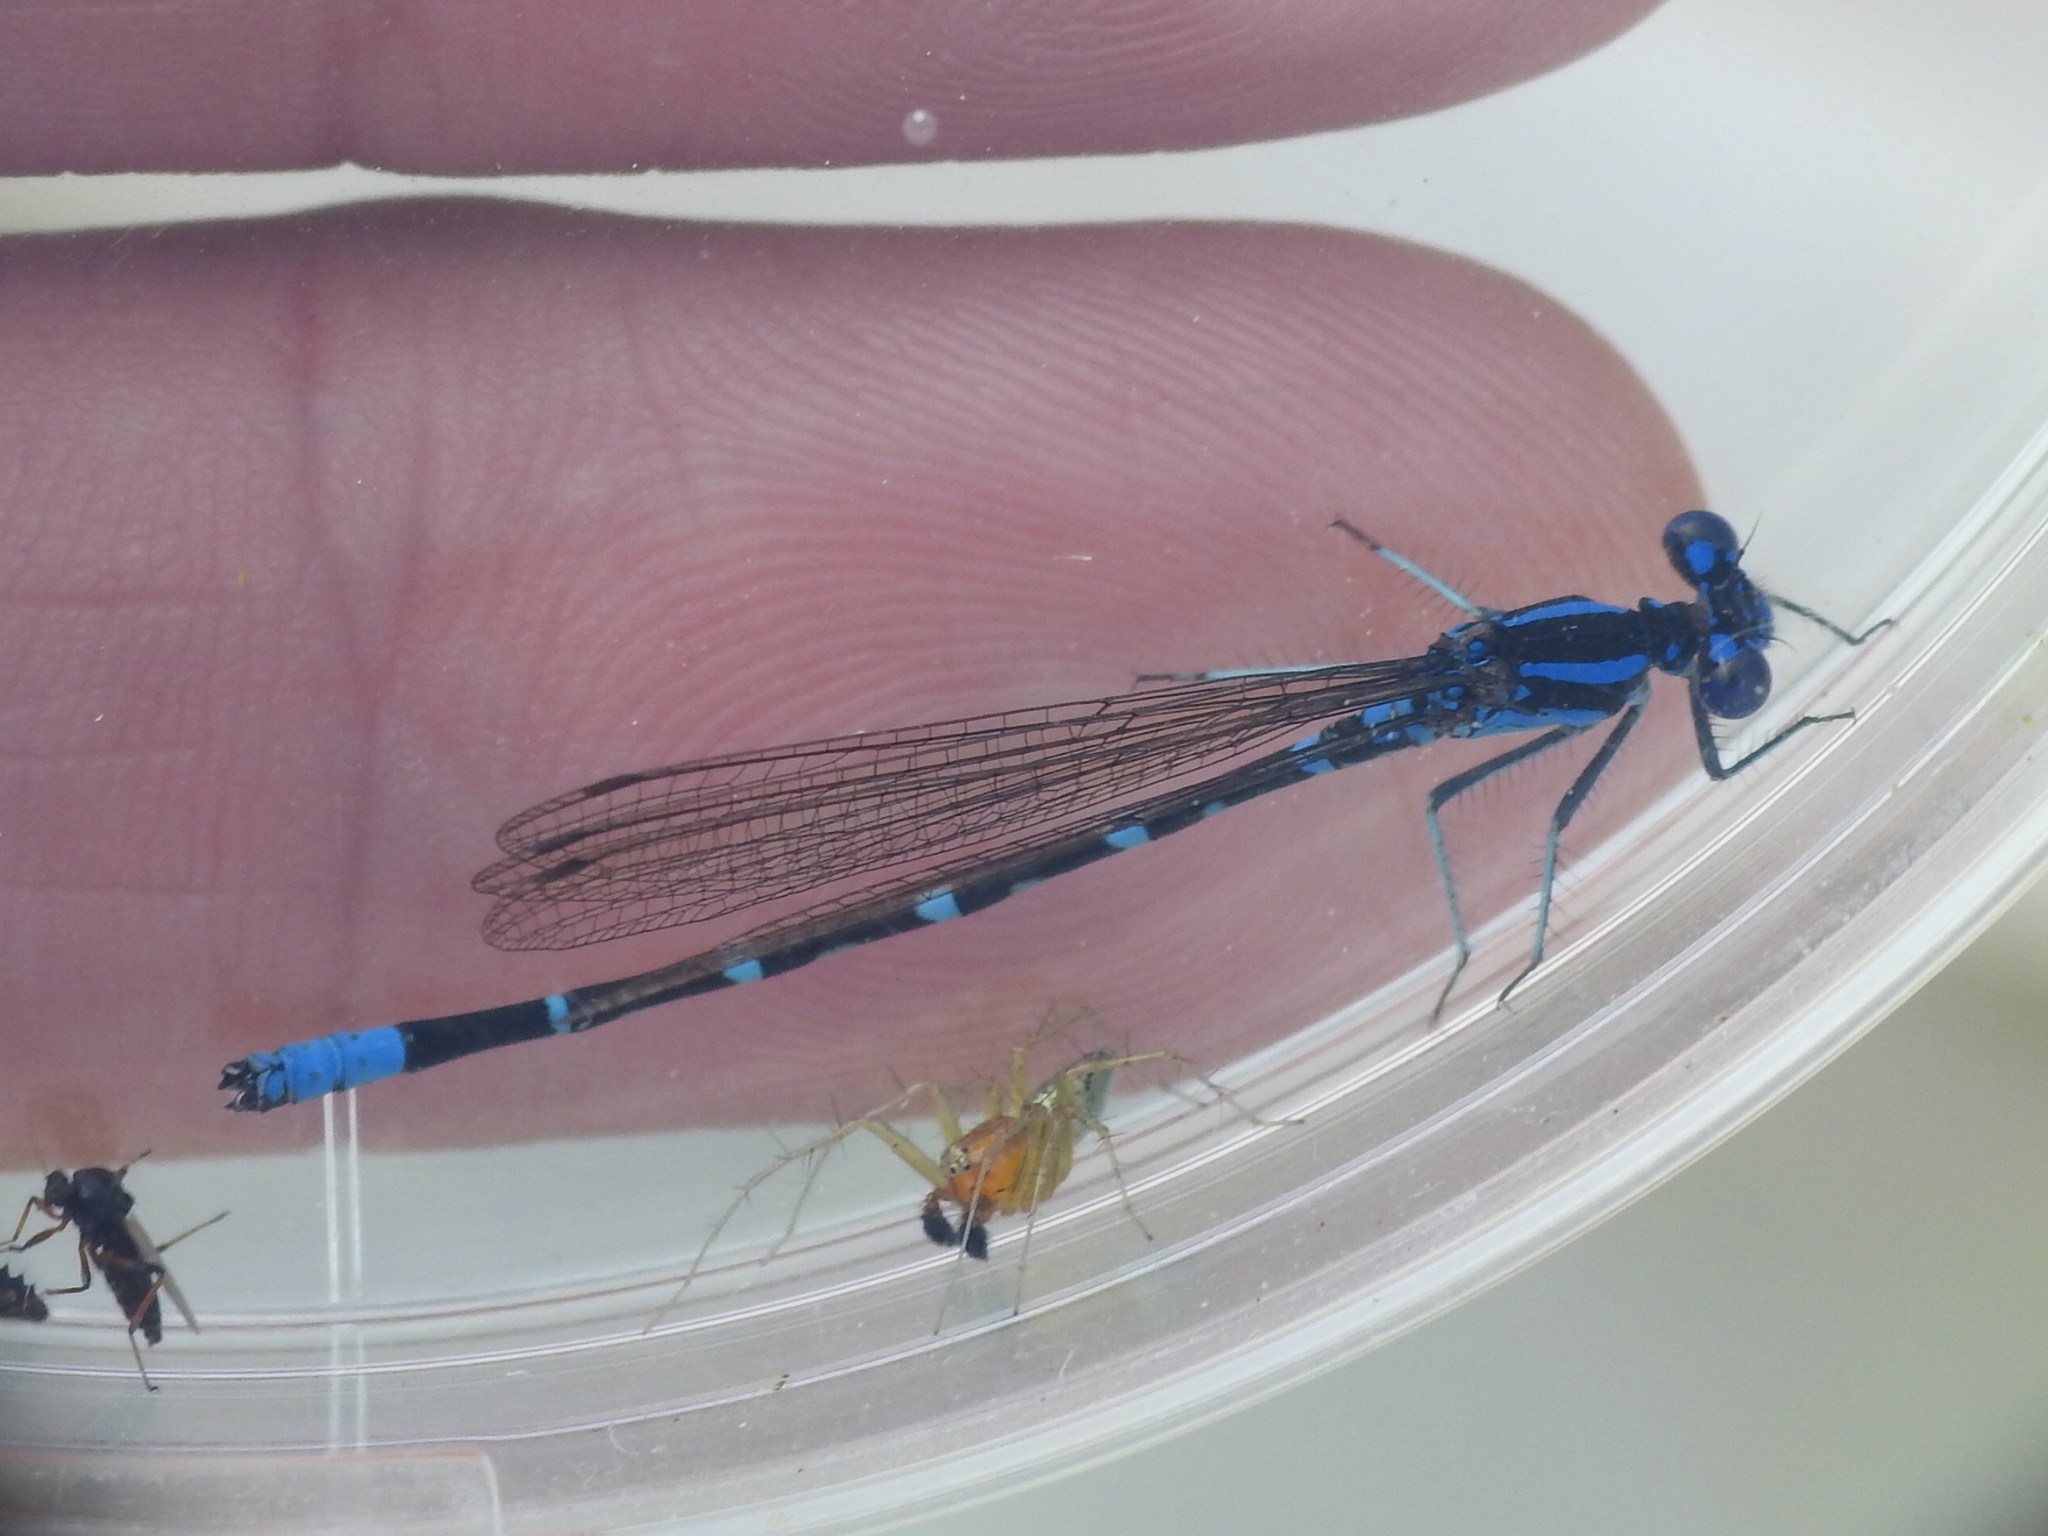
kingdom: Animalia
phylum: Arthropoda
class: Insecta
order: Odonata
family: Coenagrionidae
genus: Argia
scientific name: Argia sedula
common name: Blue-ringed dancer
